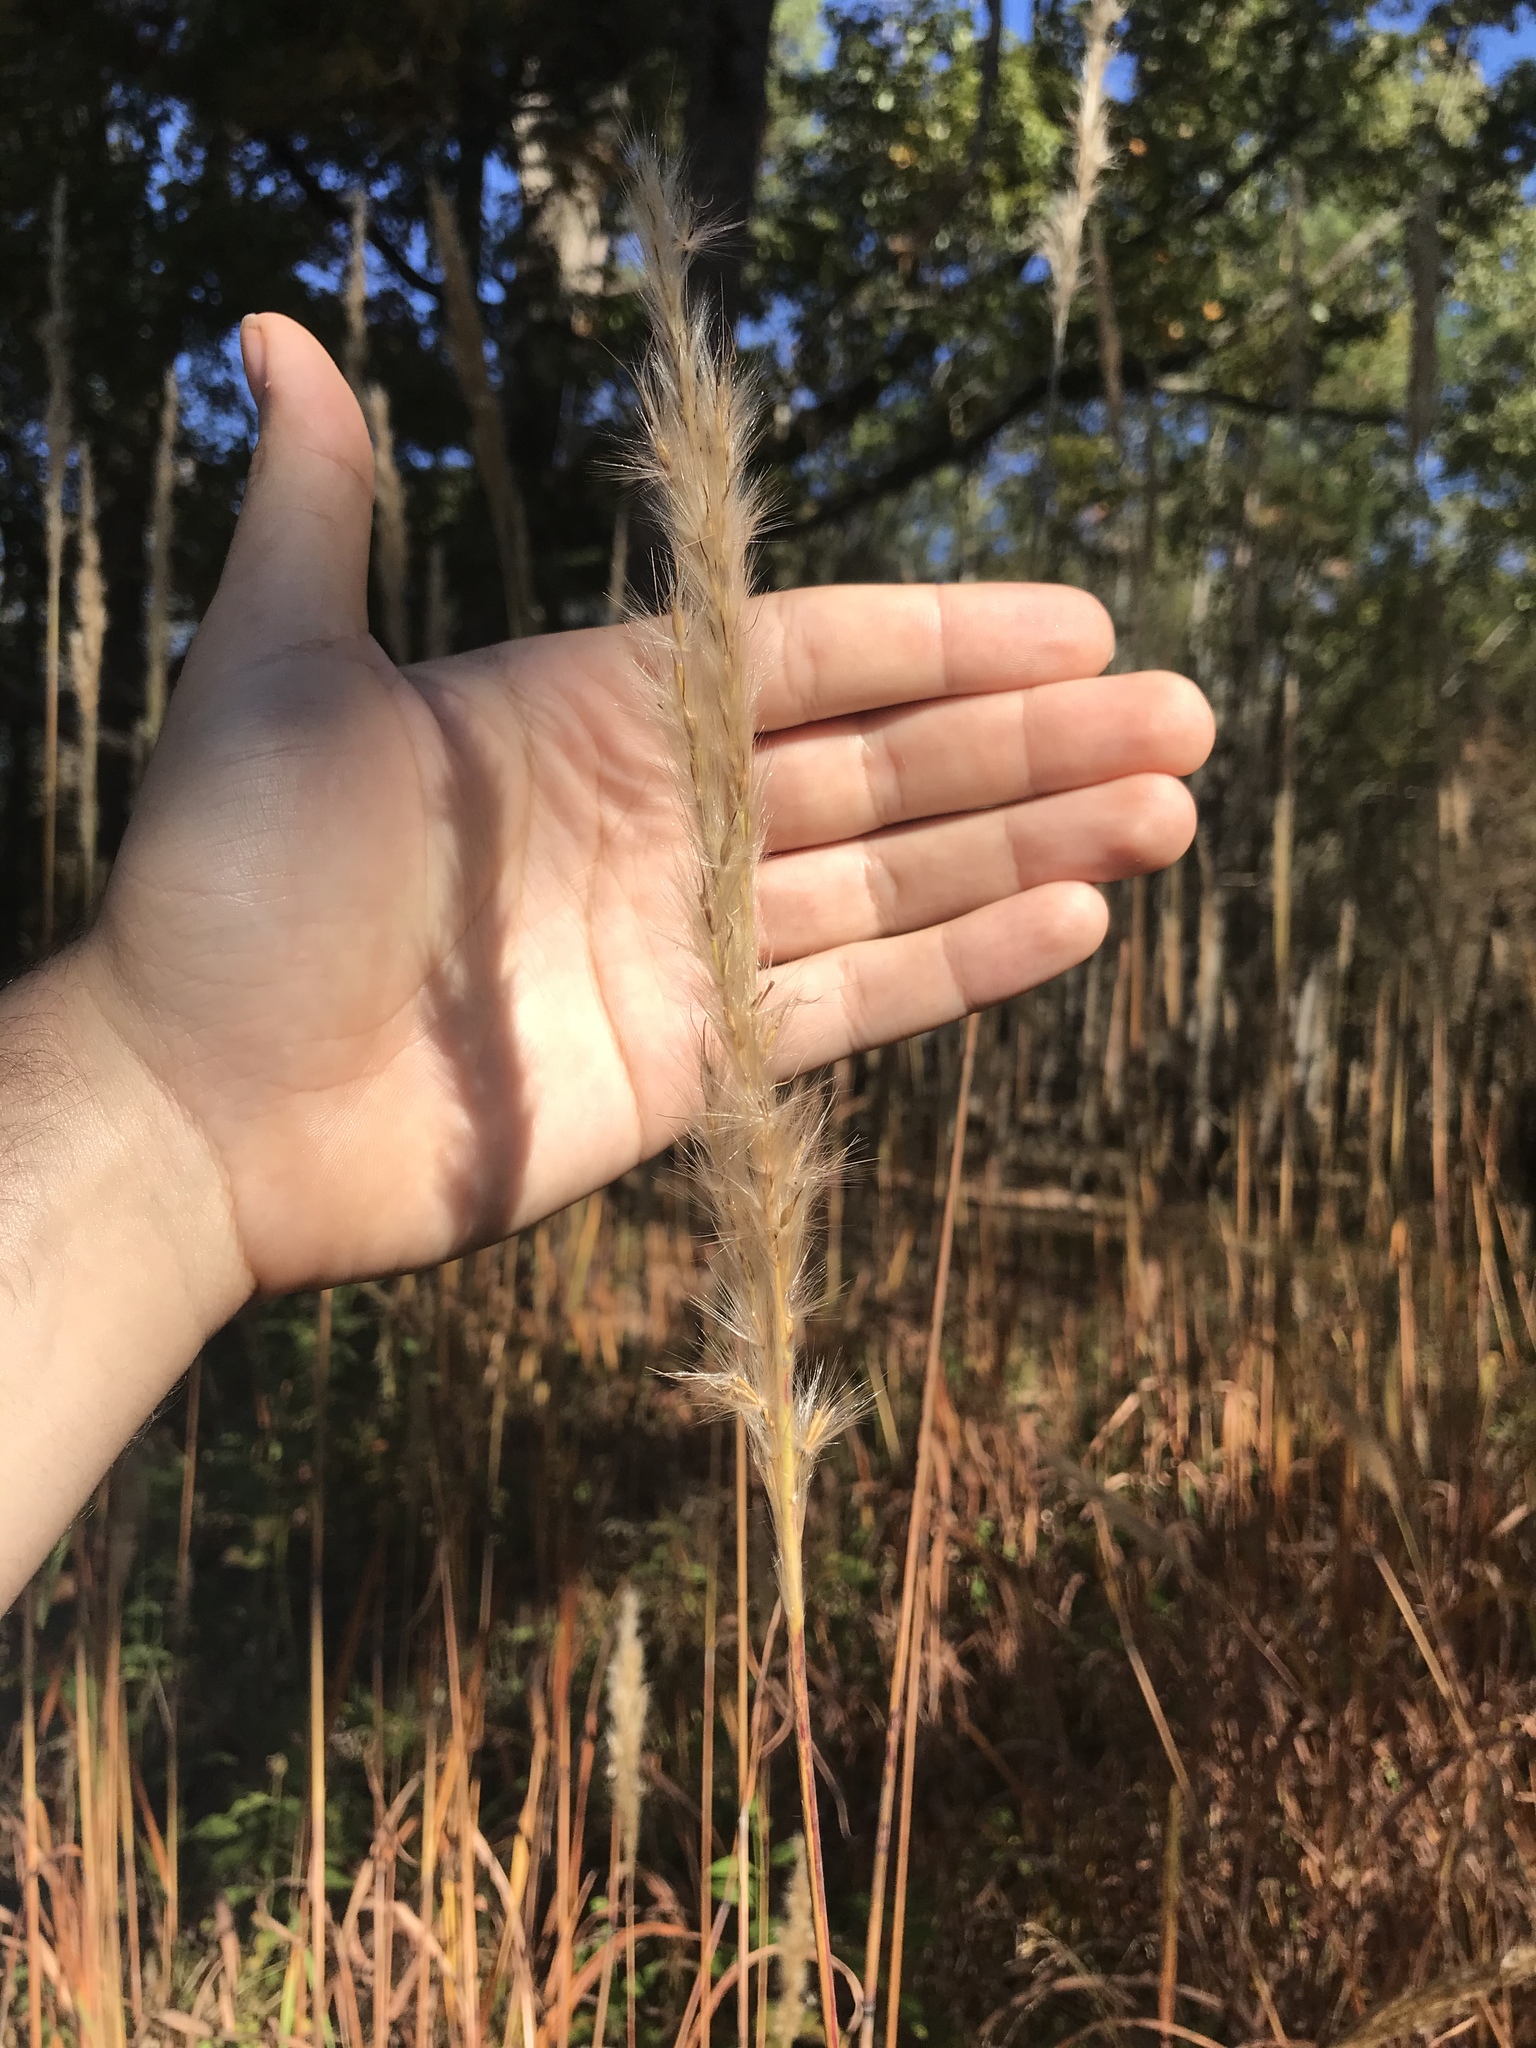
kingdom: Plantae
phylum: Tracheophyta
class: Liliopsida
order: Poales
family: Poaceae
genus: Erianthus
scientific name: Erianthus giganteus
